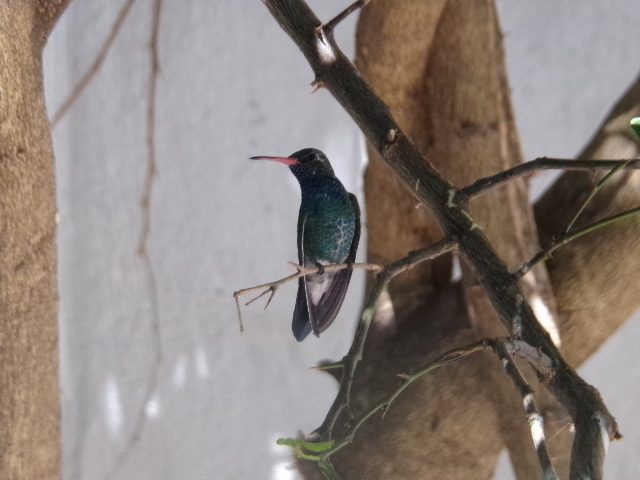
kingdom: Animalia
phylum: Chordata
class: Aves
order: Apodiformes
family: Trochilidae
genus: Cynanthus
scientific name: Cynanthus latirostris
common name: Broad-billed hummingbird
